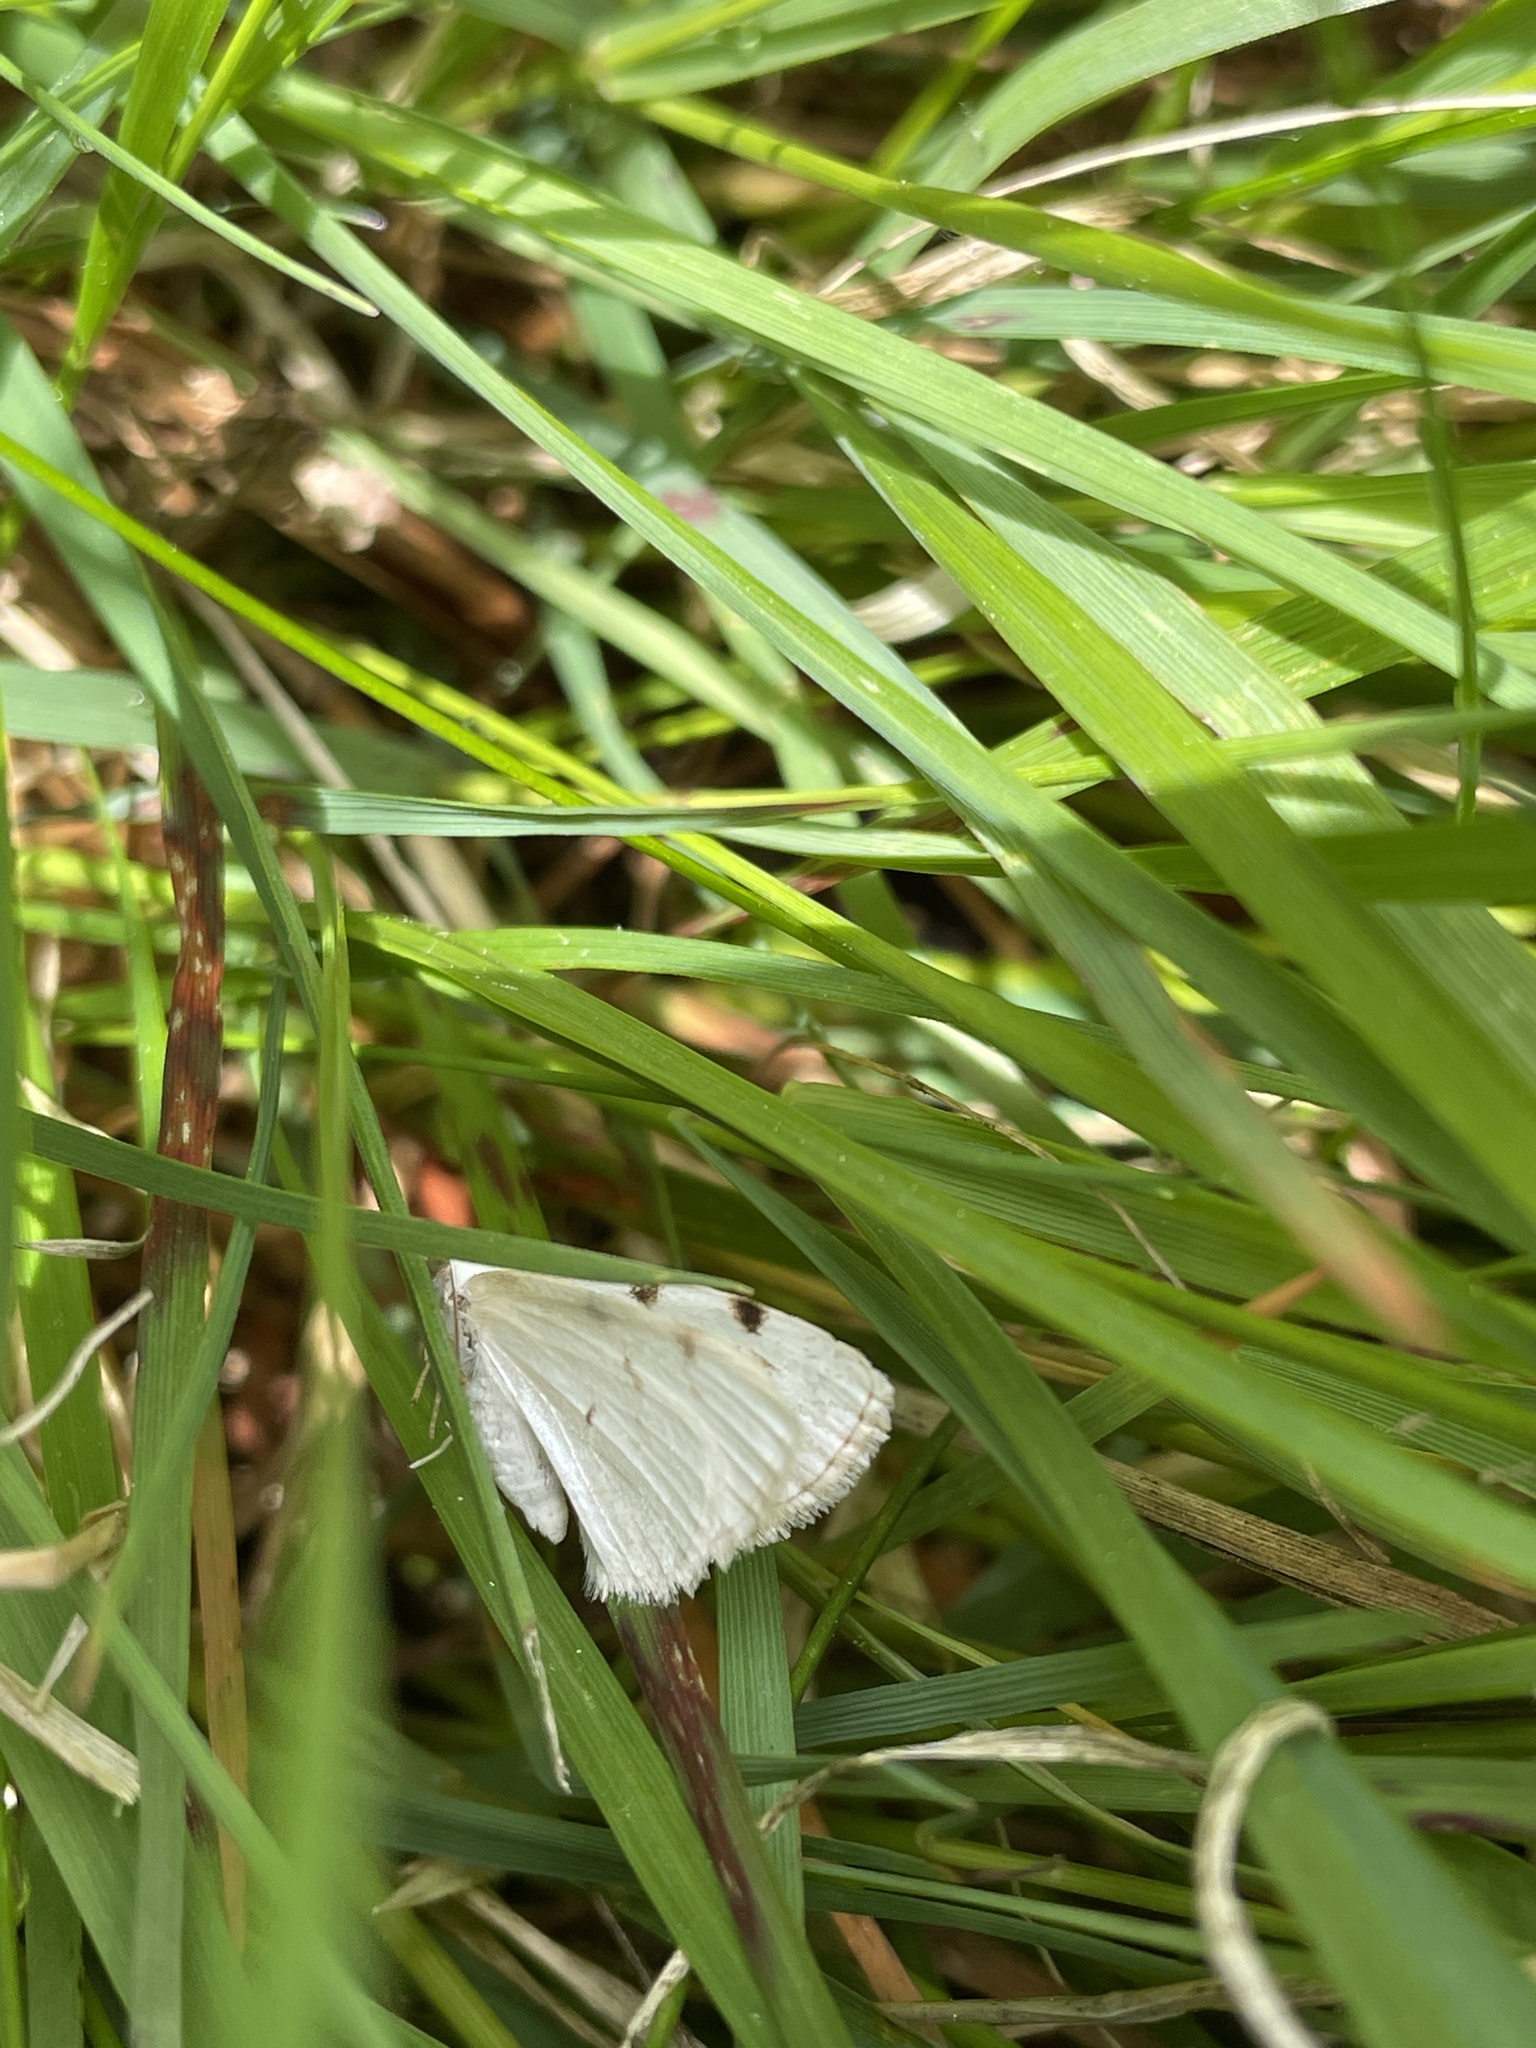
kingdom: Animalia
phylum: Arthropoda
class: Insecta
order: Lepidoptera
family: Geometridae
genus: Lomographa
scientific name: Lomographa bimaculata
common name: White-pinion spotted
